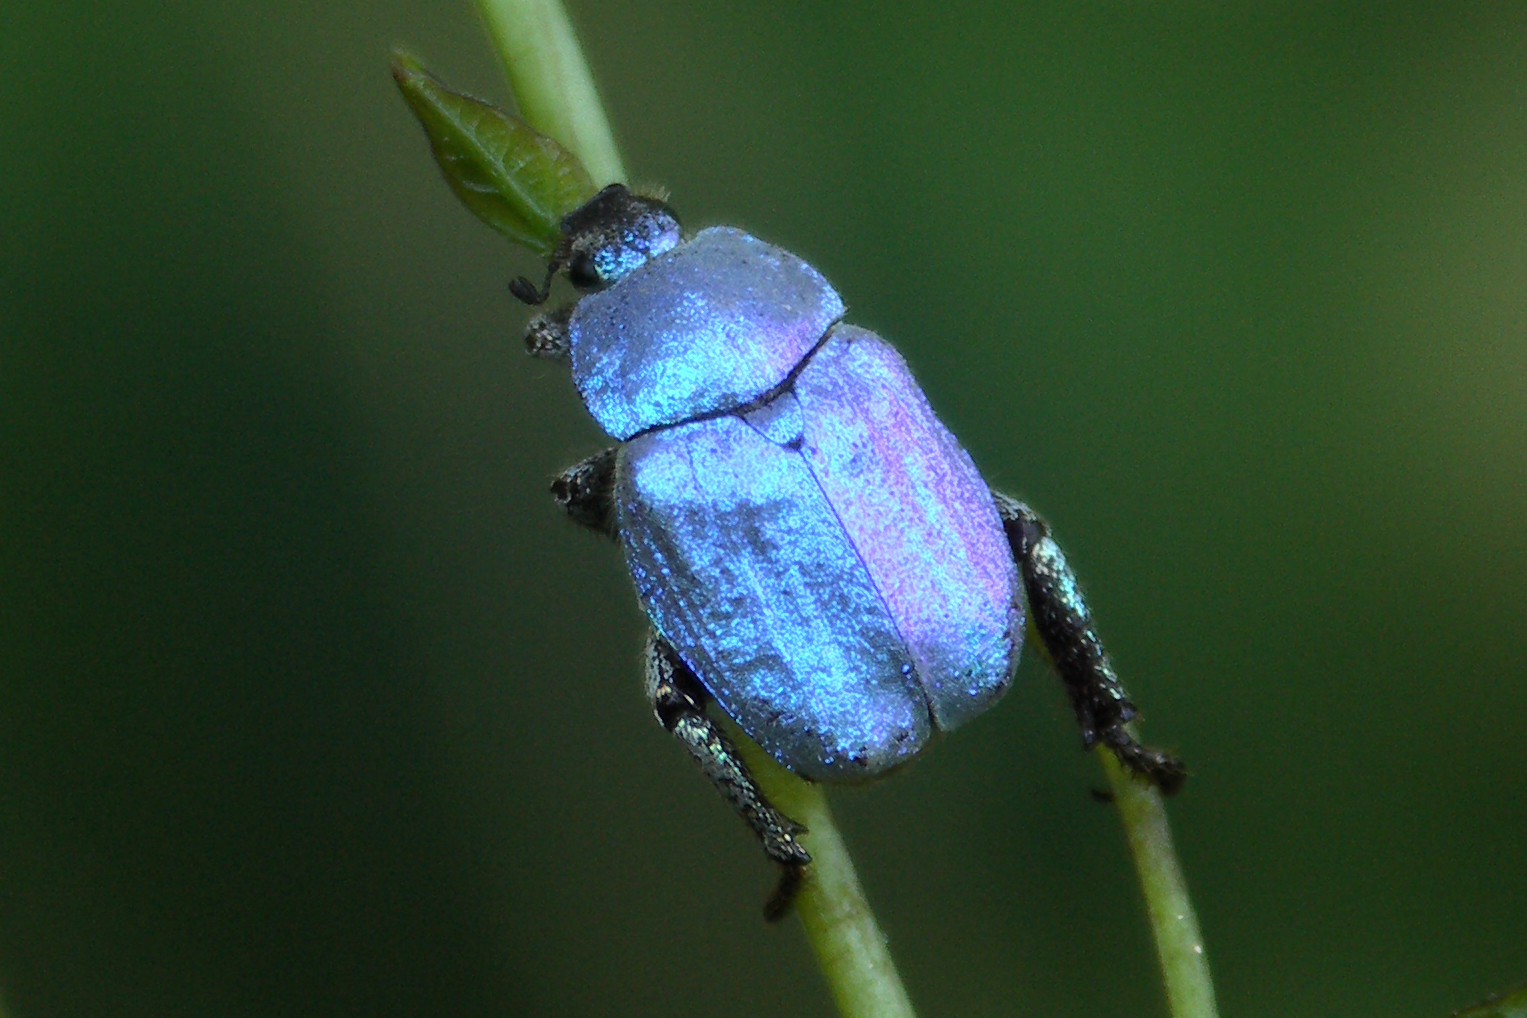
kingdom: Animalia
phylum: Arthropoda
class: Insecta
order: Coleoptera
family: Scarabaeidae
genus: Hoplia
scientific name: Hoplia coerulea
